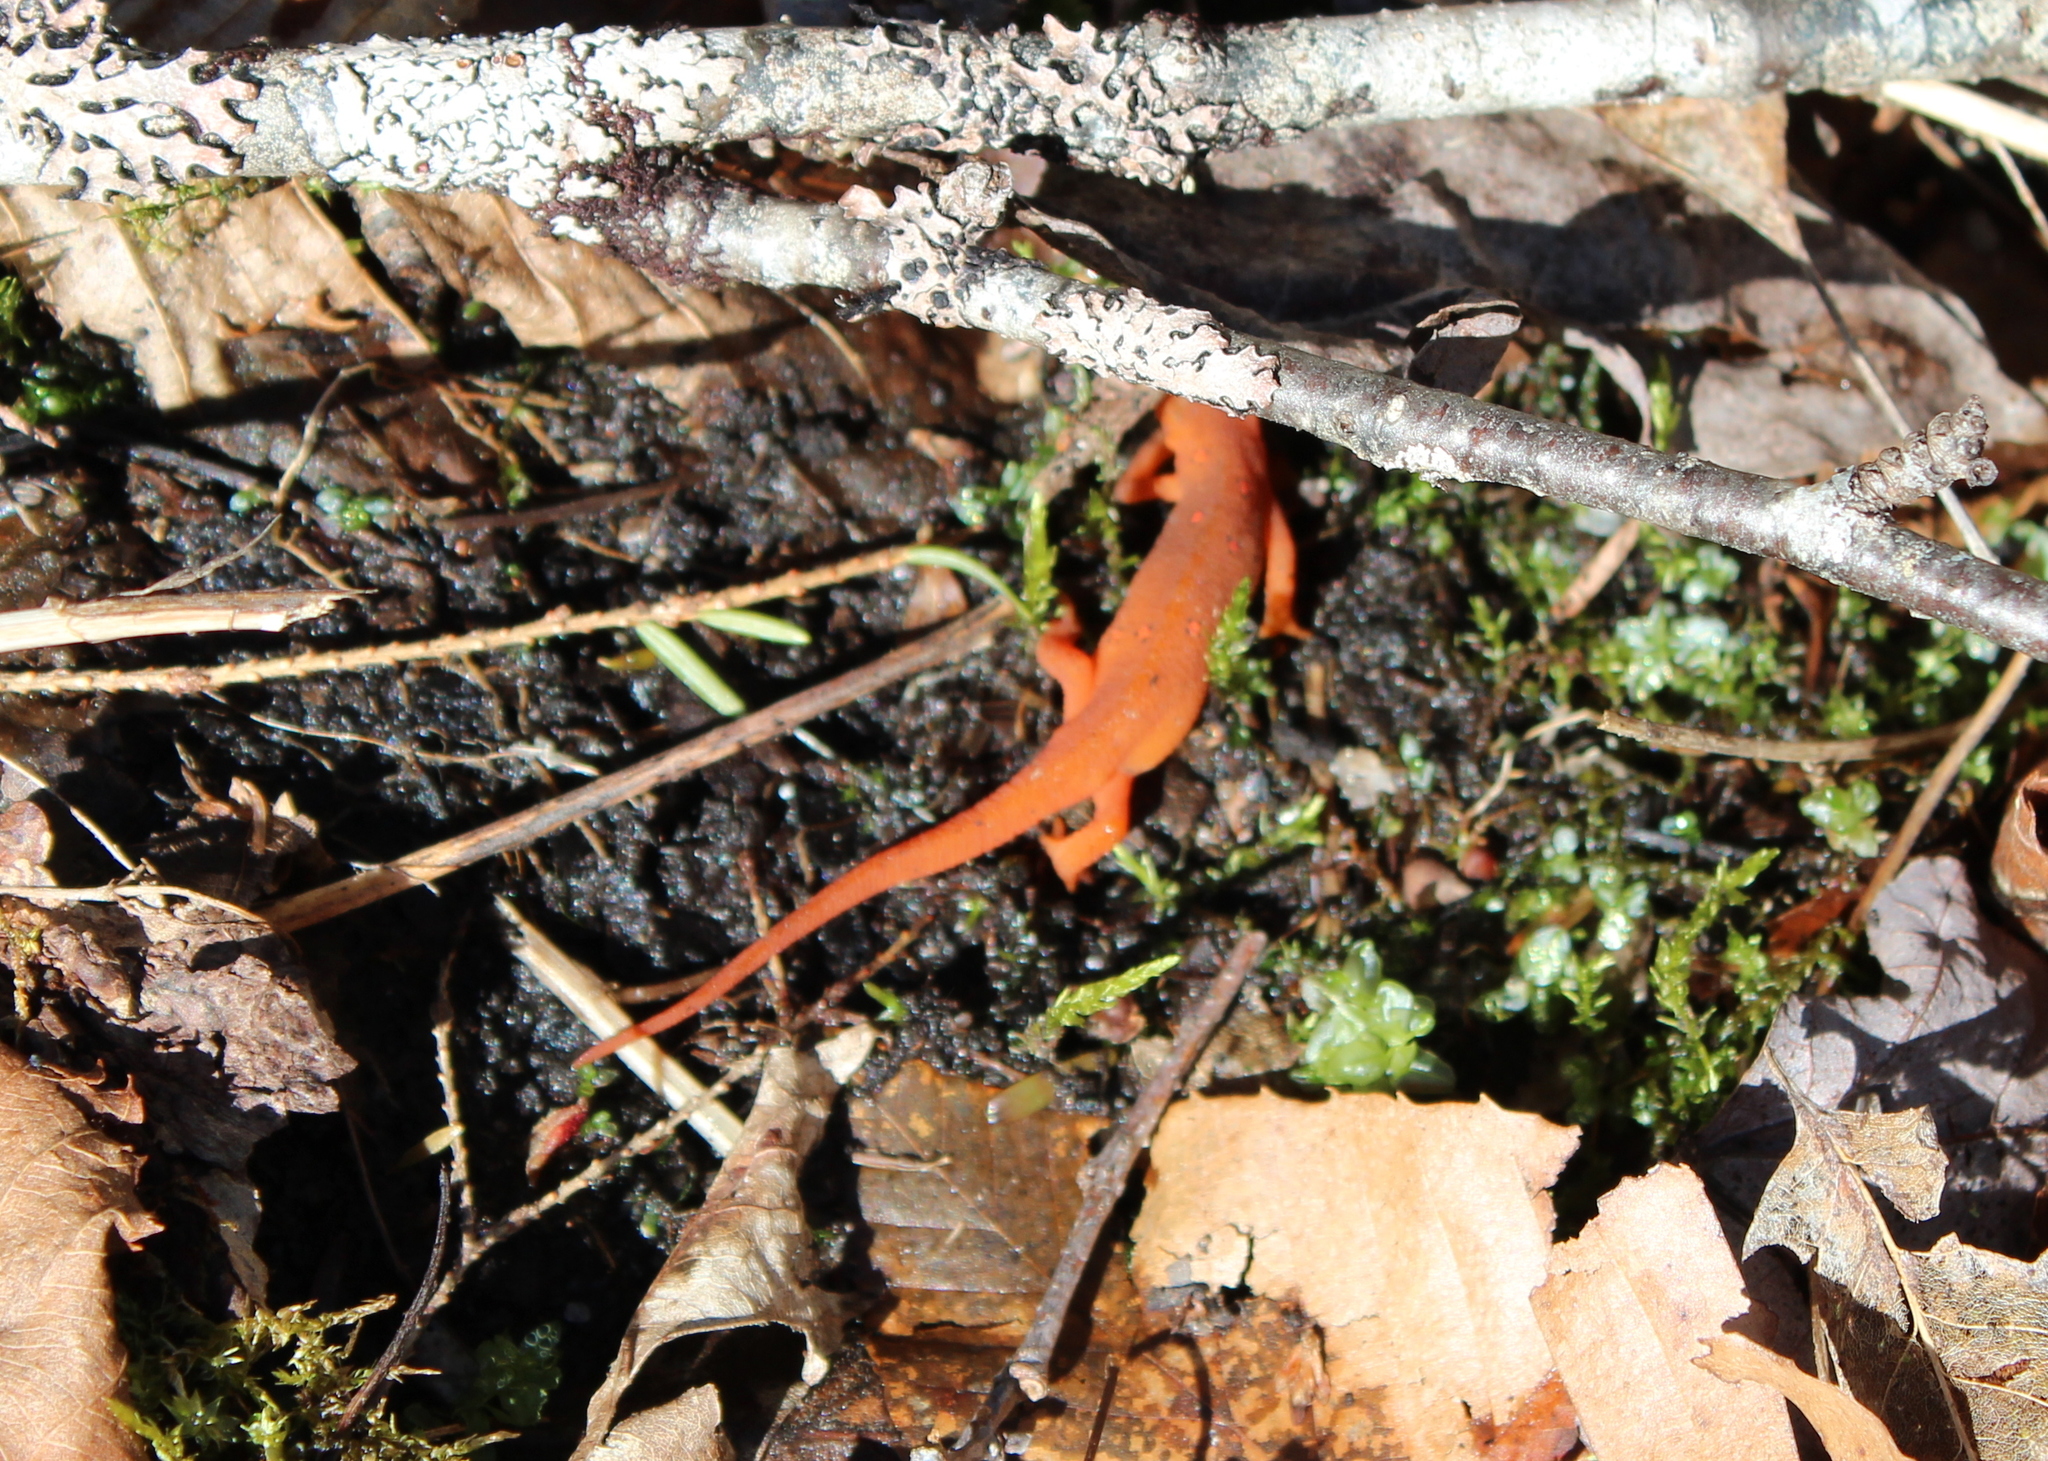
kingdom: Animalia
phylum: Chordata
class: Amphibia
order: Caudata
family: Salamandridae
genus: Notophthalmus
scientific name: Notophthalmus viridescens
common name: Eastern newt
